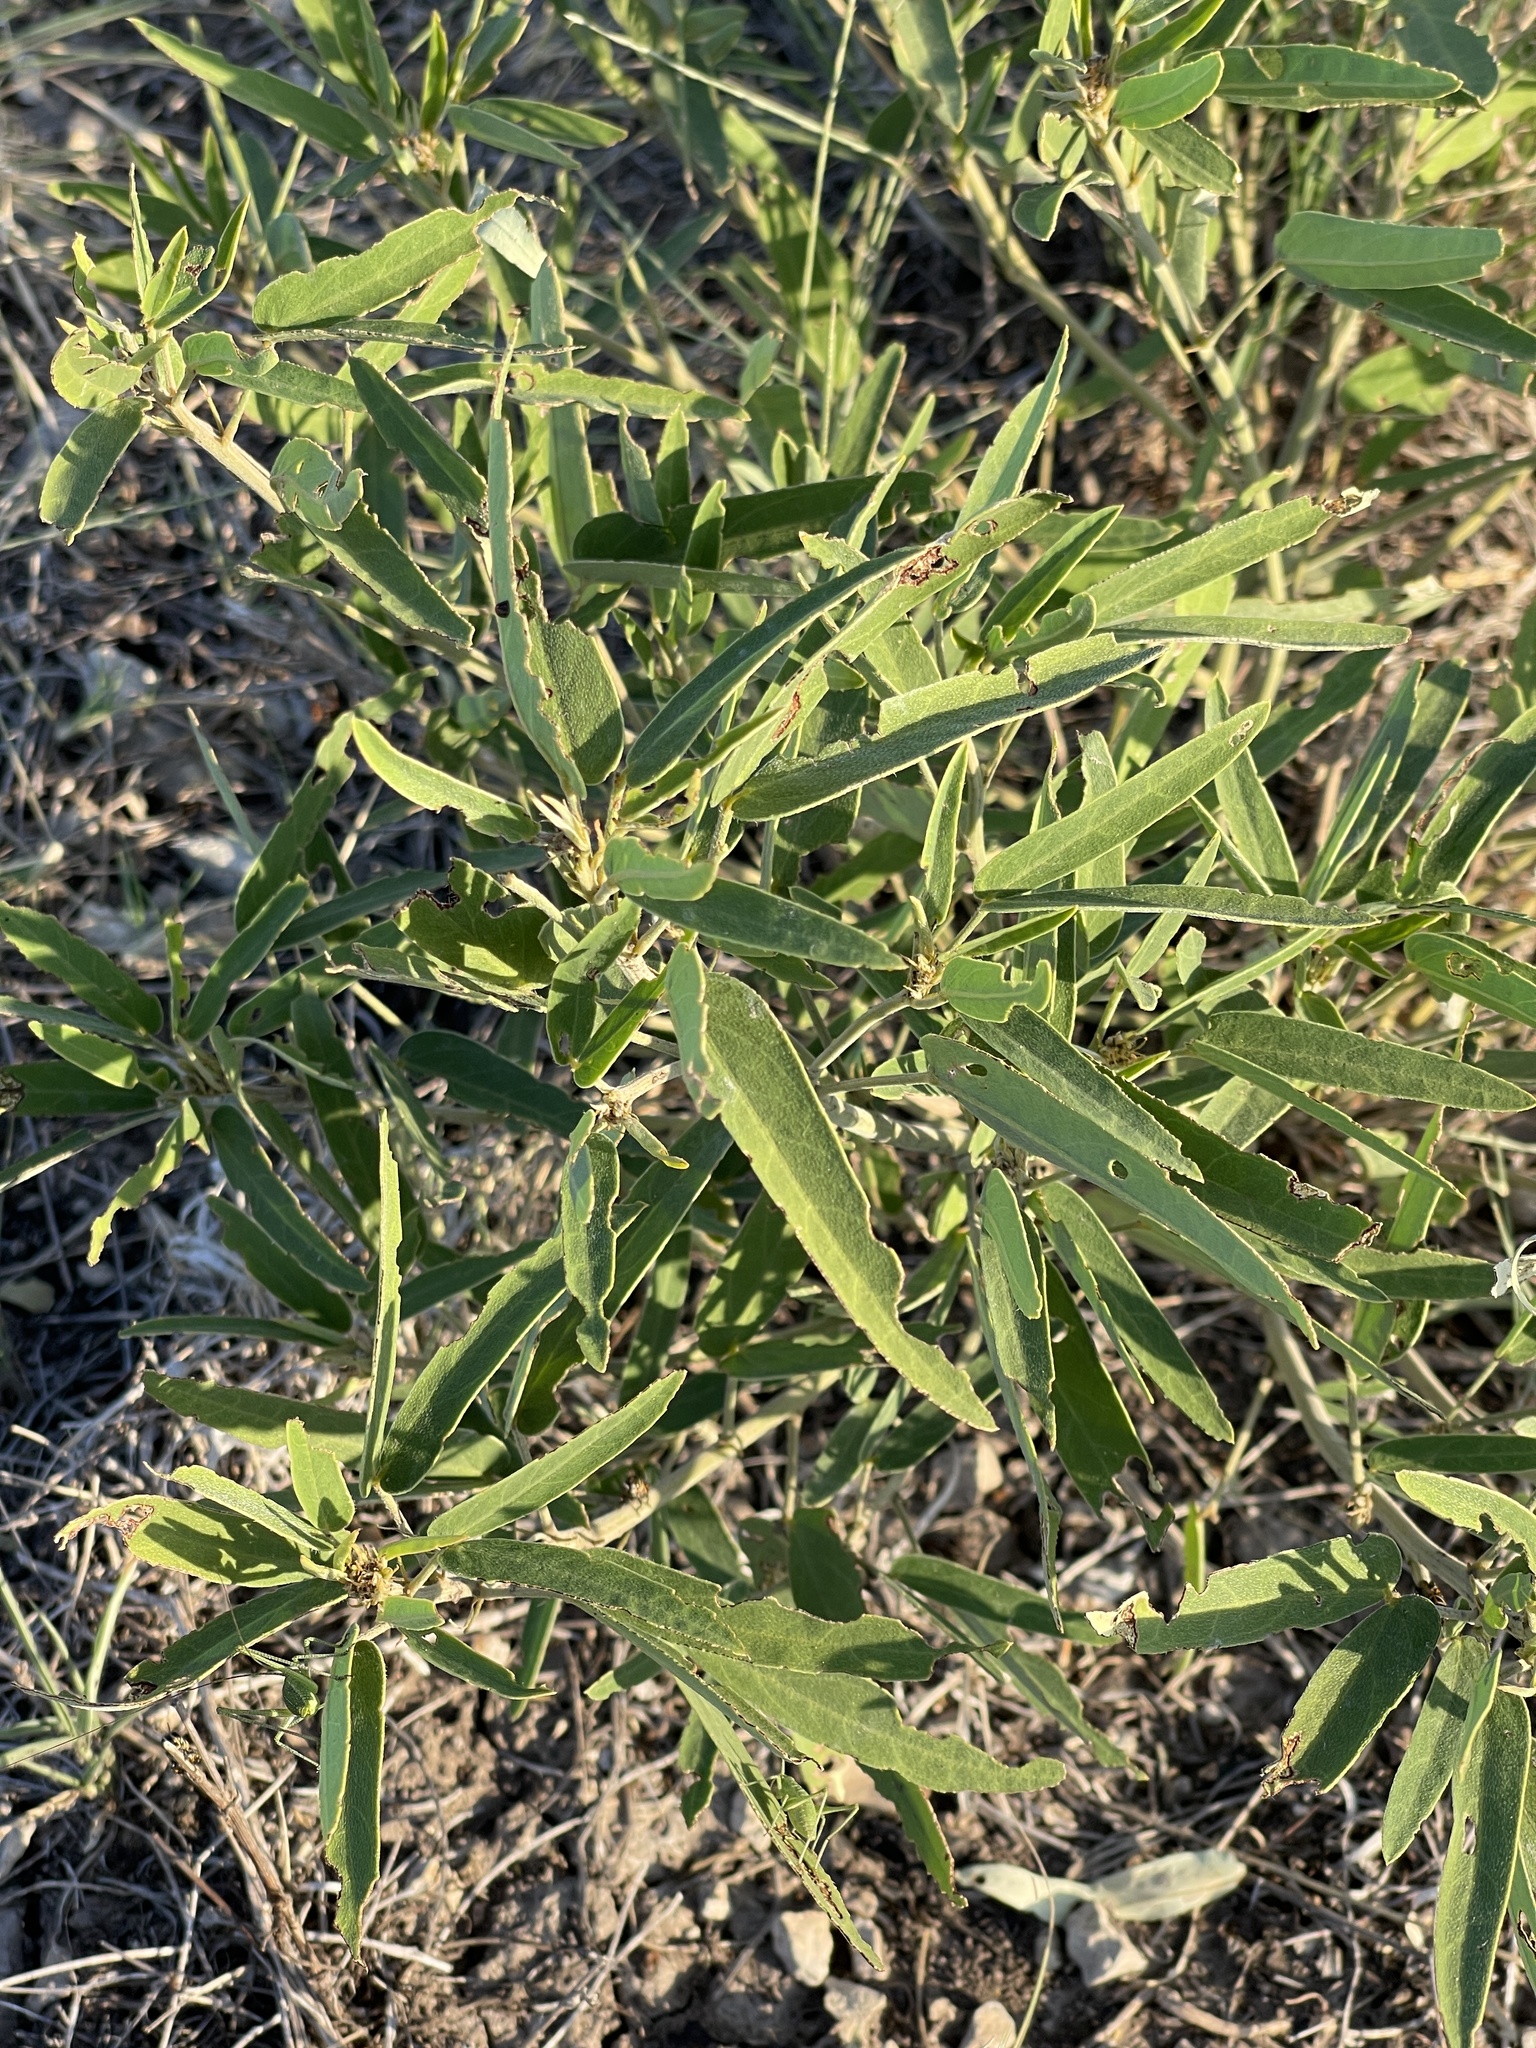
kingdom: Plantae
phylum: Tracheophyta
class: Magnoliopsida
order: Fabales
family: Fabaceae
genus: Senna
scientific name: Senna roemeriana
